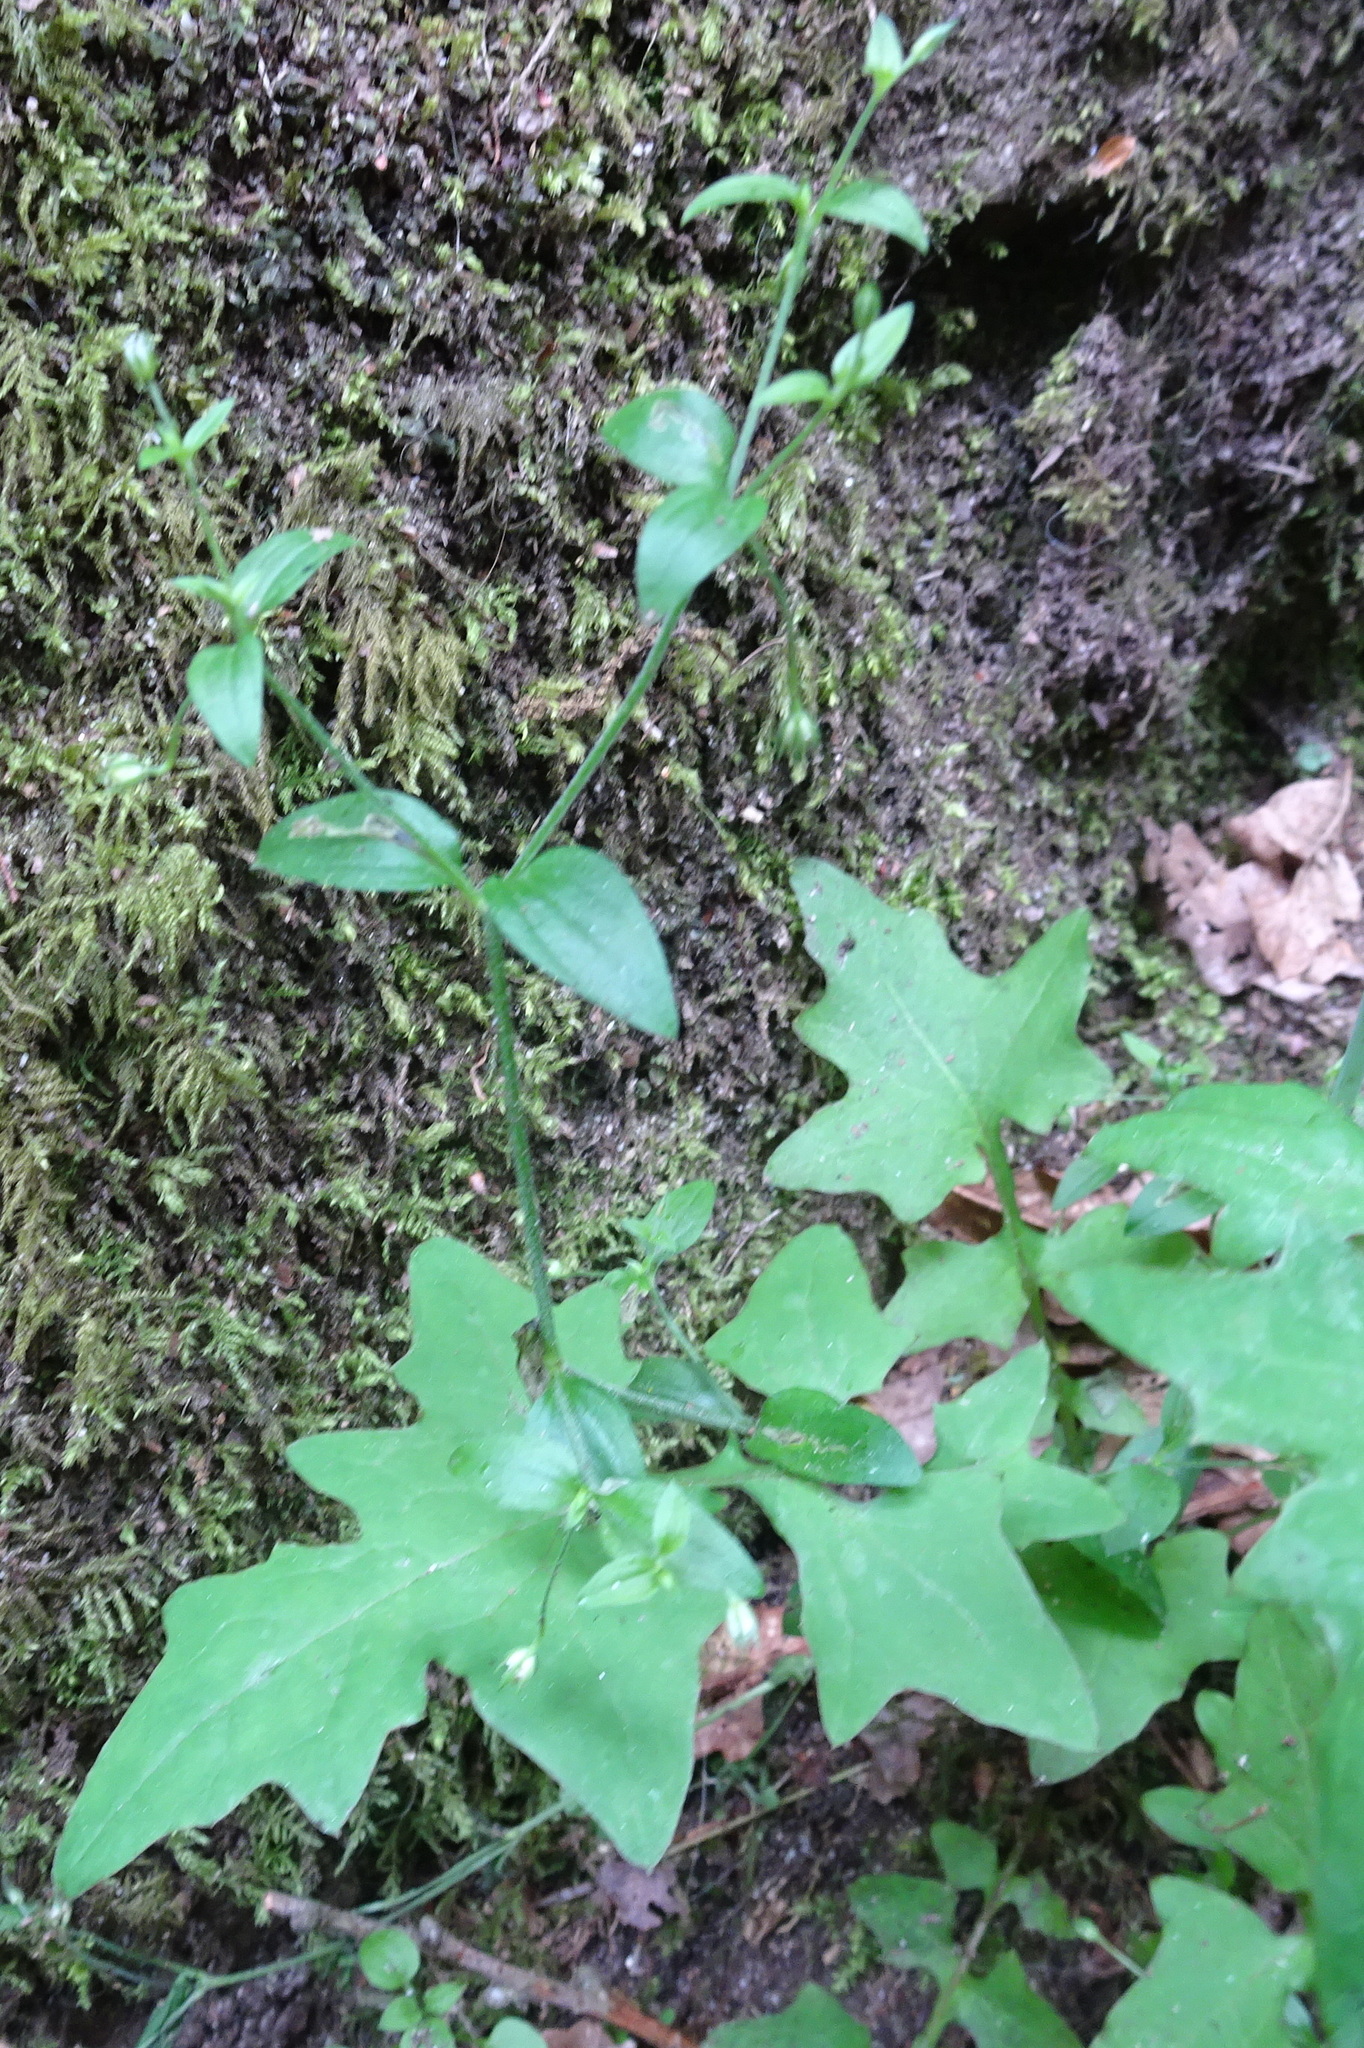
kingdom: Plantae
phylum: Tracheophyta
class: Magnoliopsida
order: Caryophyllales
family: Caryophyllaceae
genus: Moehringia
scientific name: Moehringia trinervia
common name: Three-nerved sandwort
